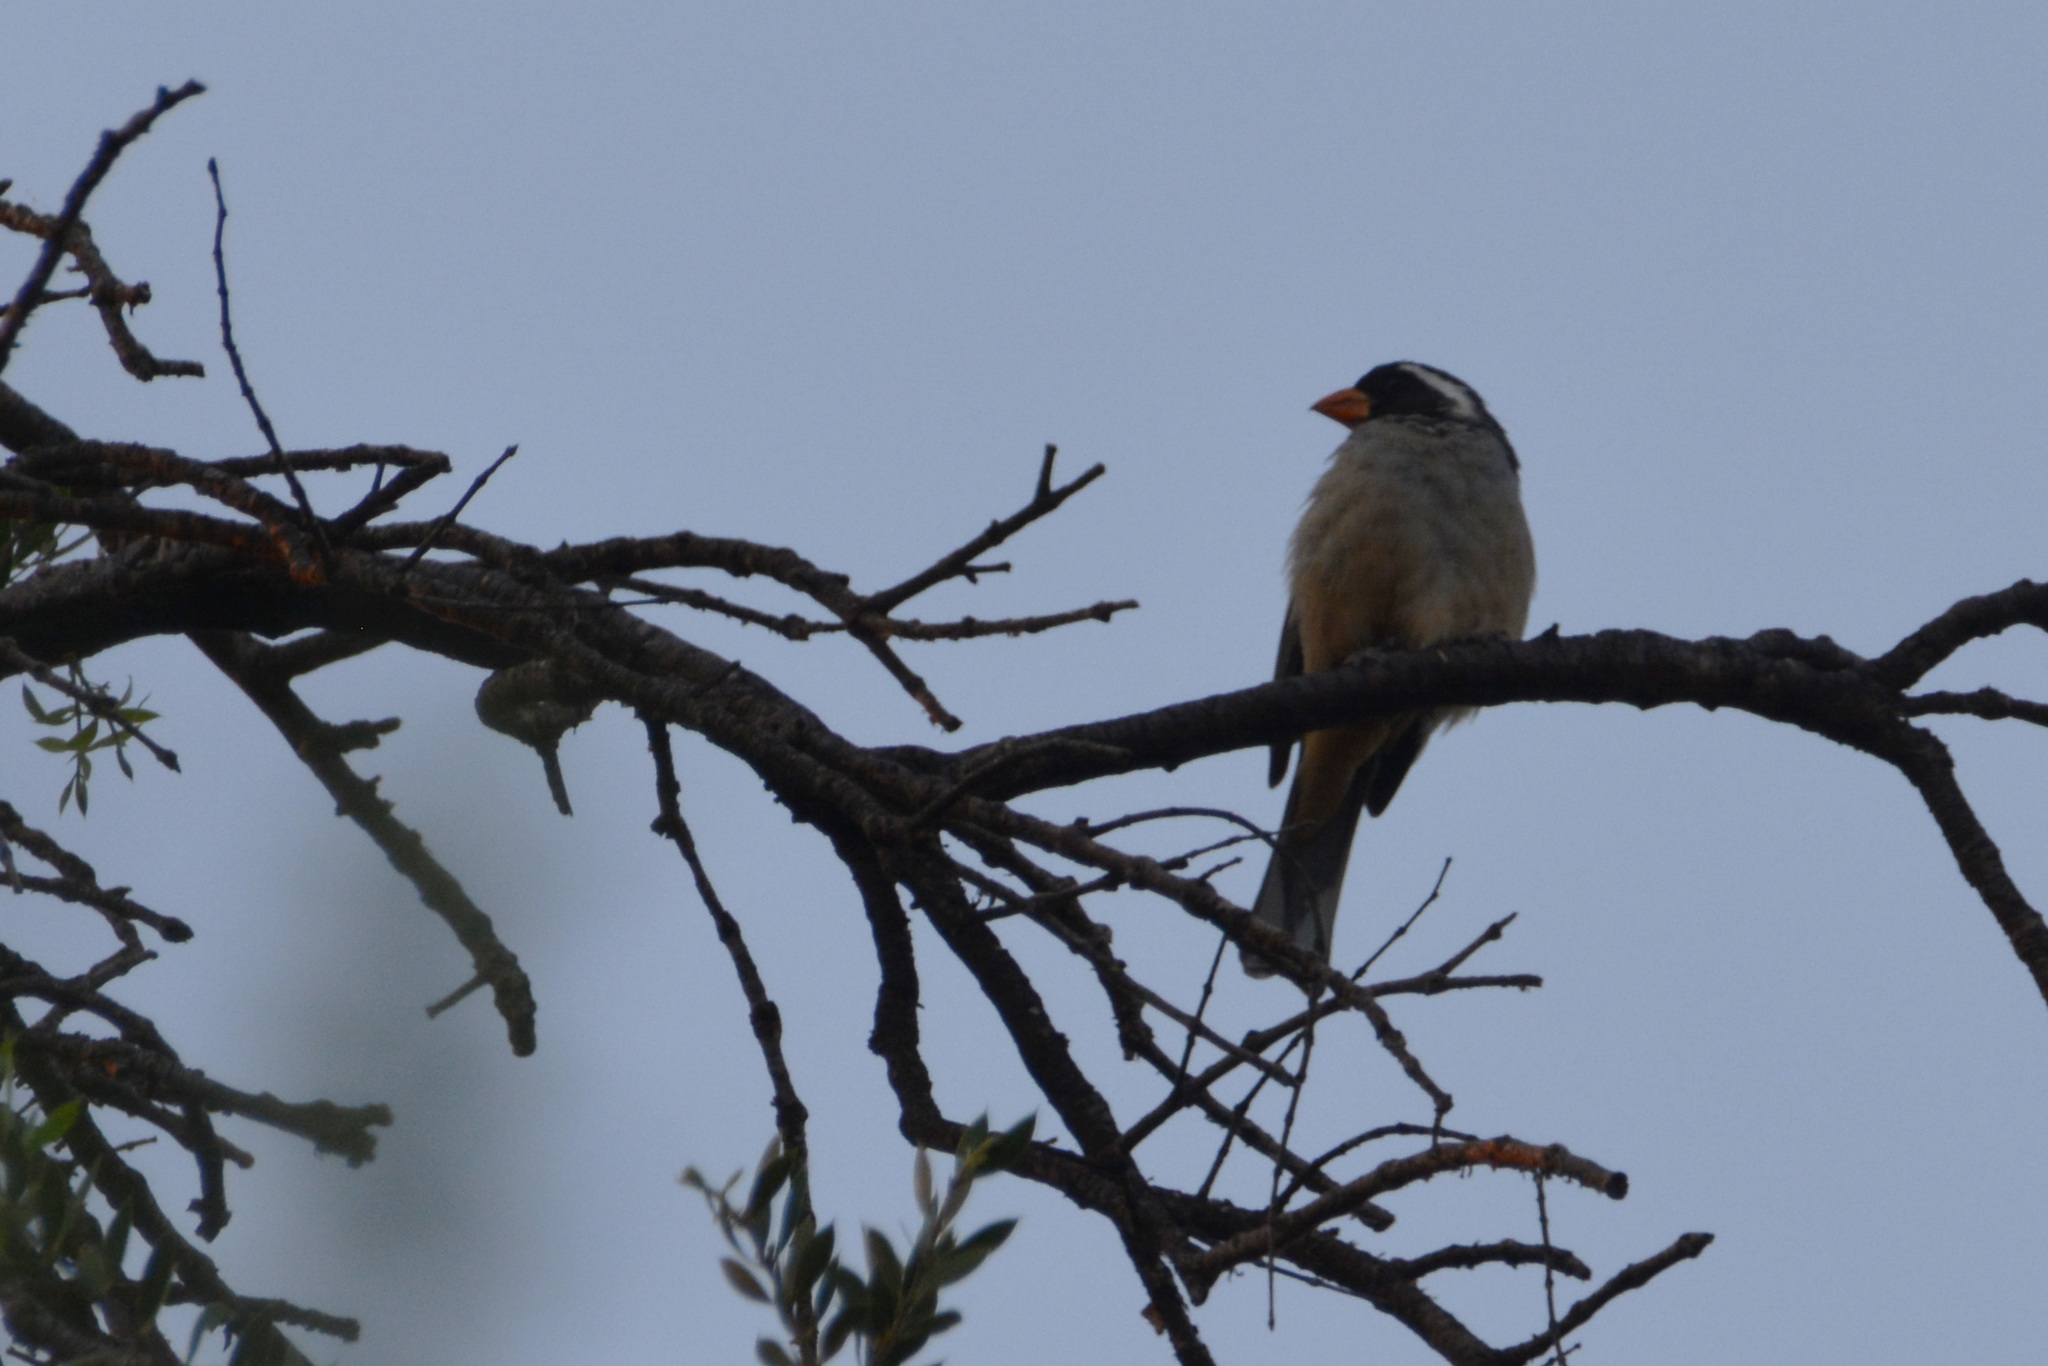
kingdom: Animalia
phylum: Chordata
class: Aves
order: Passeriformes
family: Thraupidae
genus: Saltator
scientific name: Saltator aurantiirostris
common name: Golden-billed saltator
